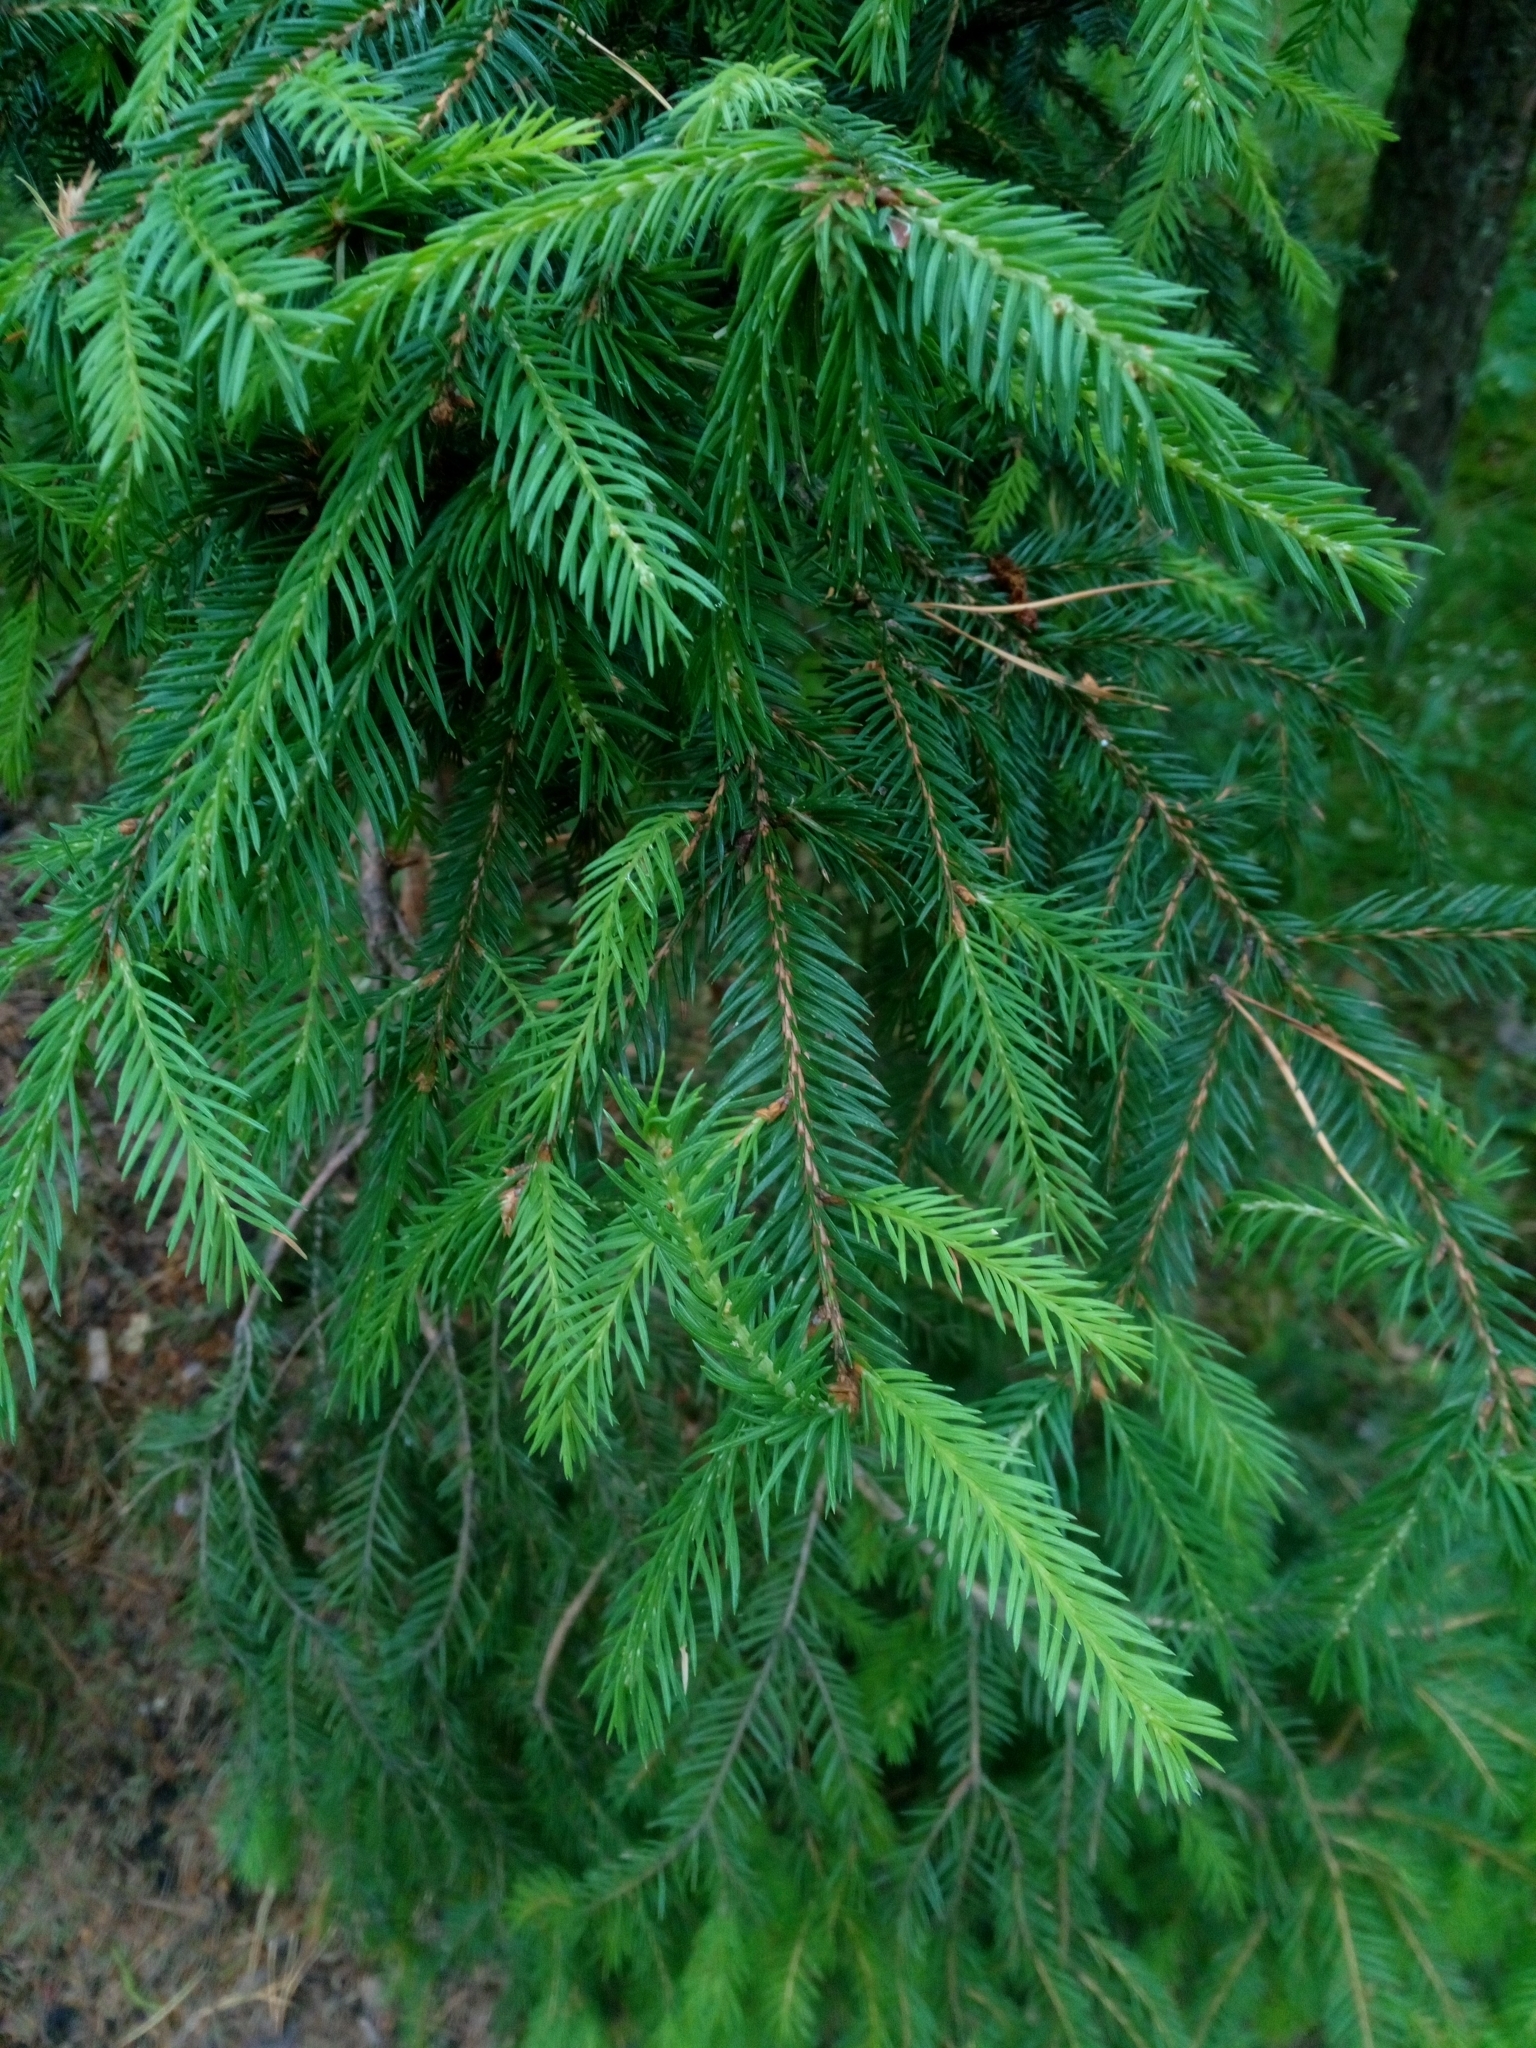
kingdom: Plantae
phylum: Tracheophyta
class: Pinopsida
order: Pinales
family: Pinaceae
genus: Picea
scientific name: Picea abies
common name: Norway spruce
